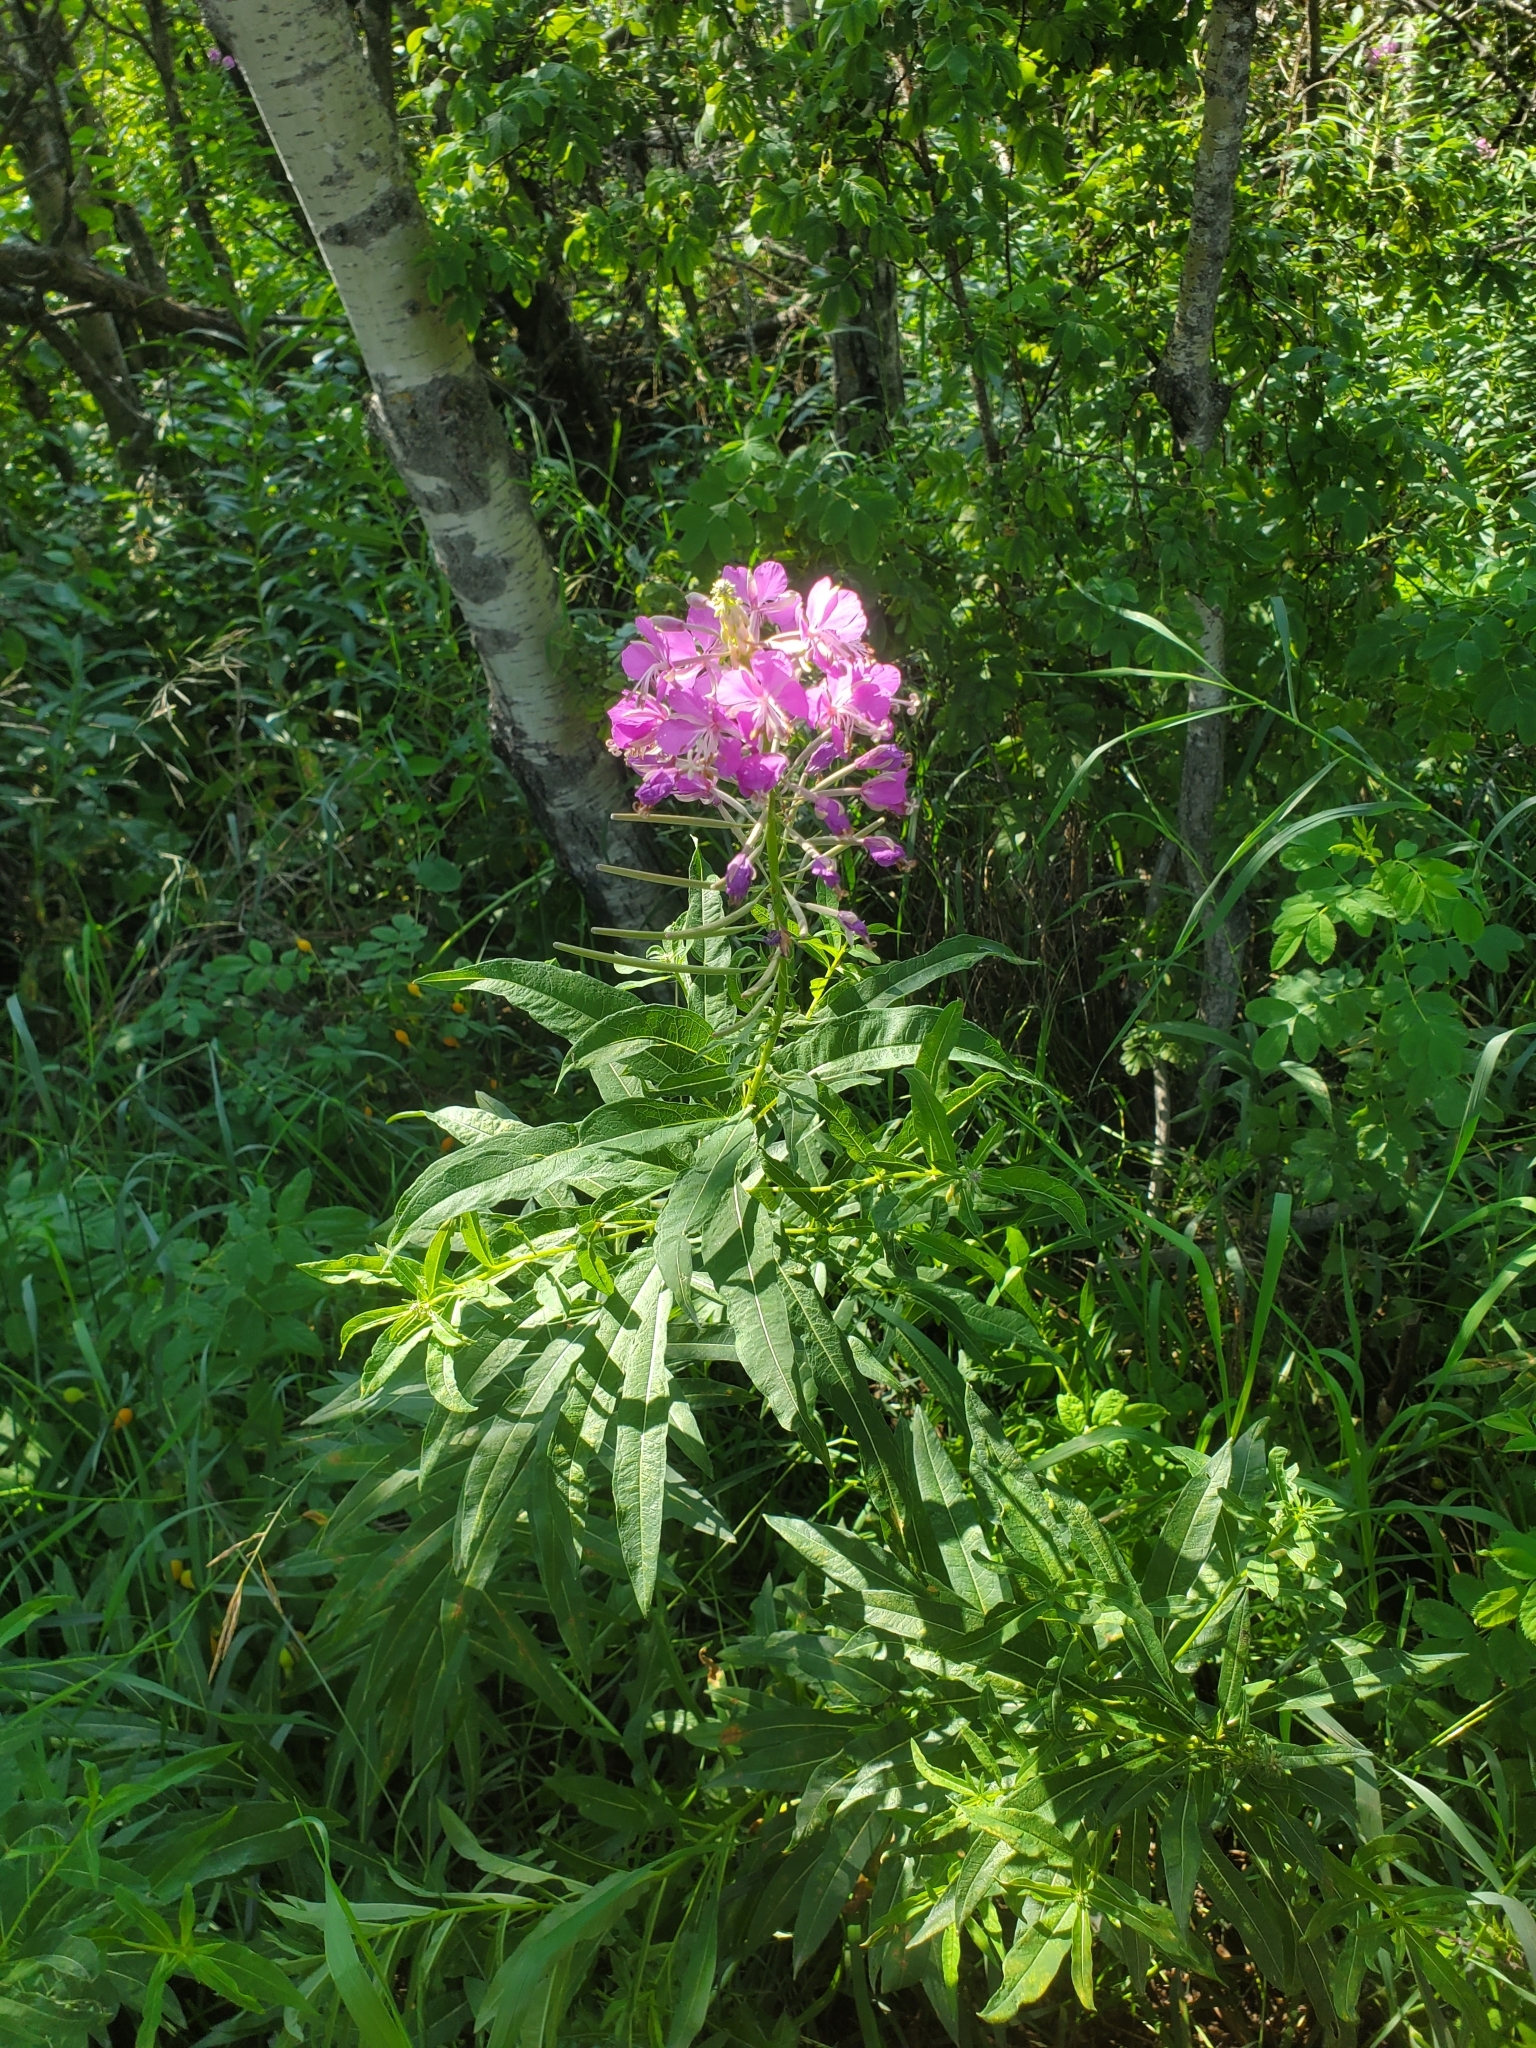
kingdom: Plantae
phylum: Tracheophyta
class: Magnoliopsida
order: Myrtales
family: Onagraceae
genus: Chamaenerion
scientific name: Chamaenerion angustifolium
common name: Fireweed
